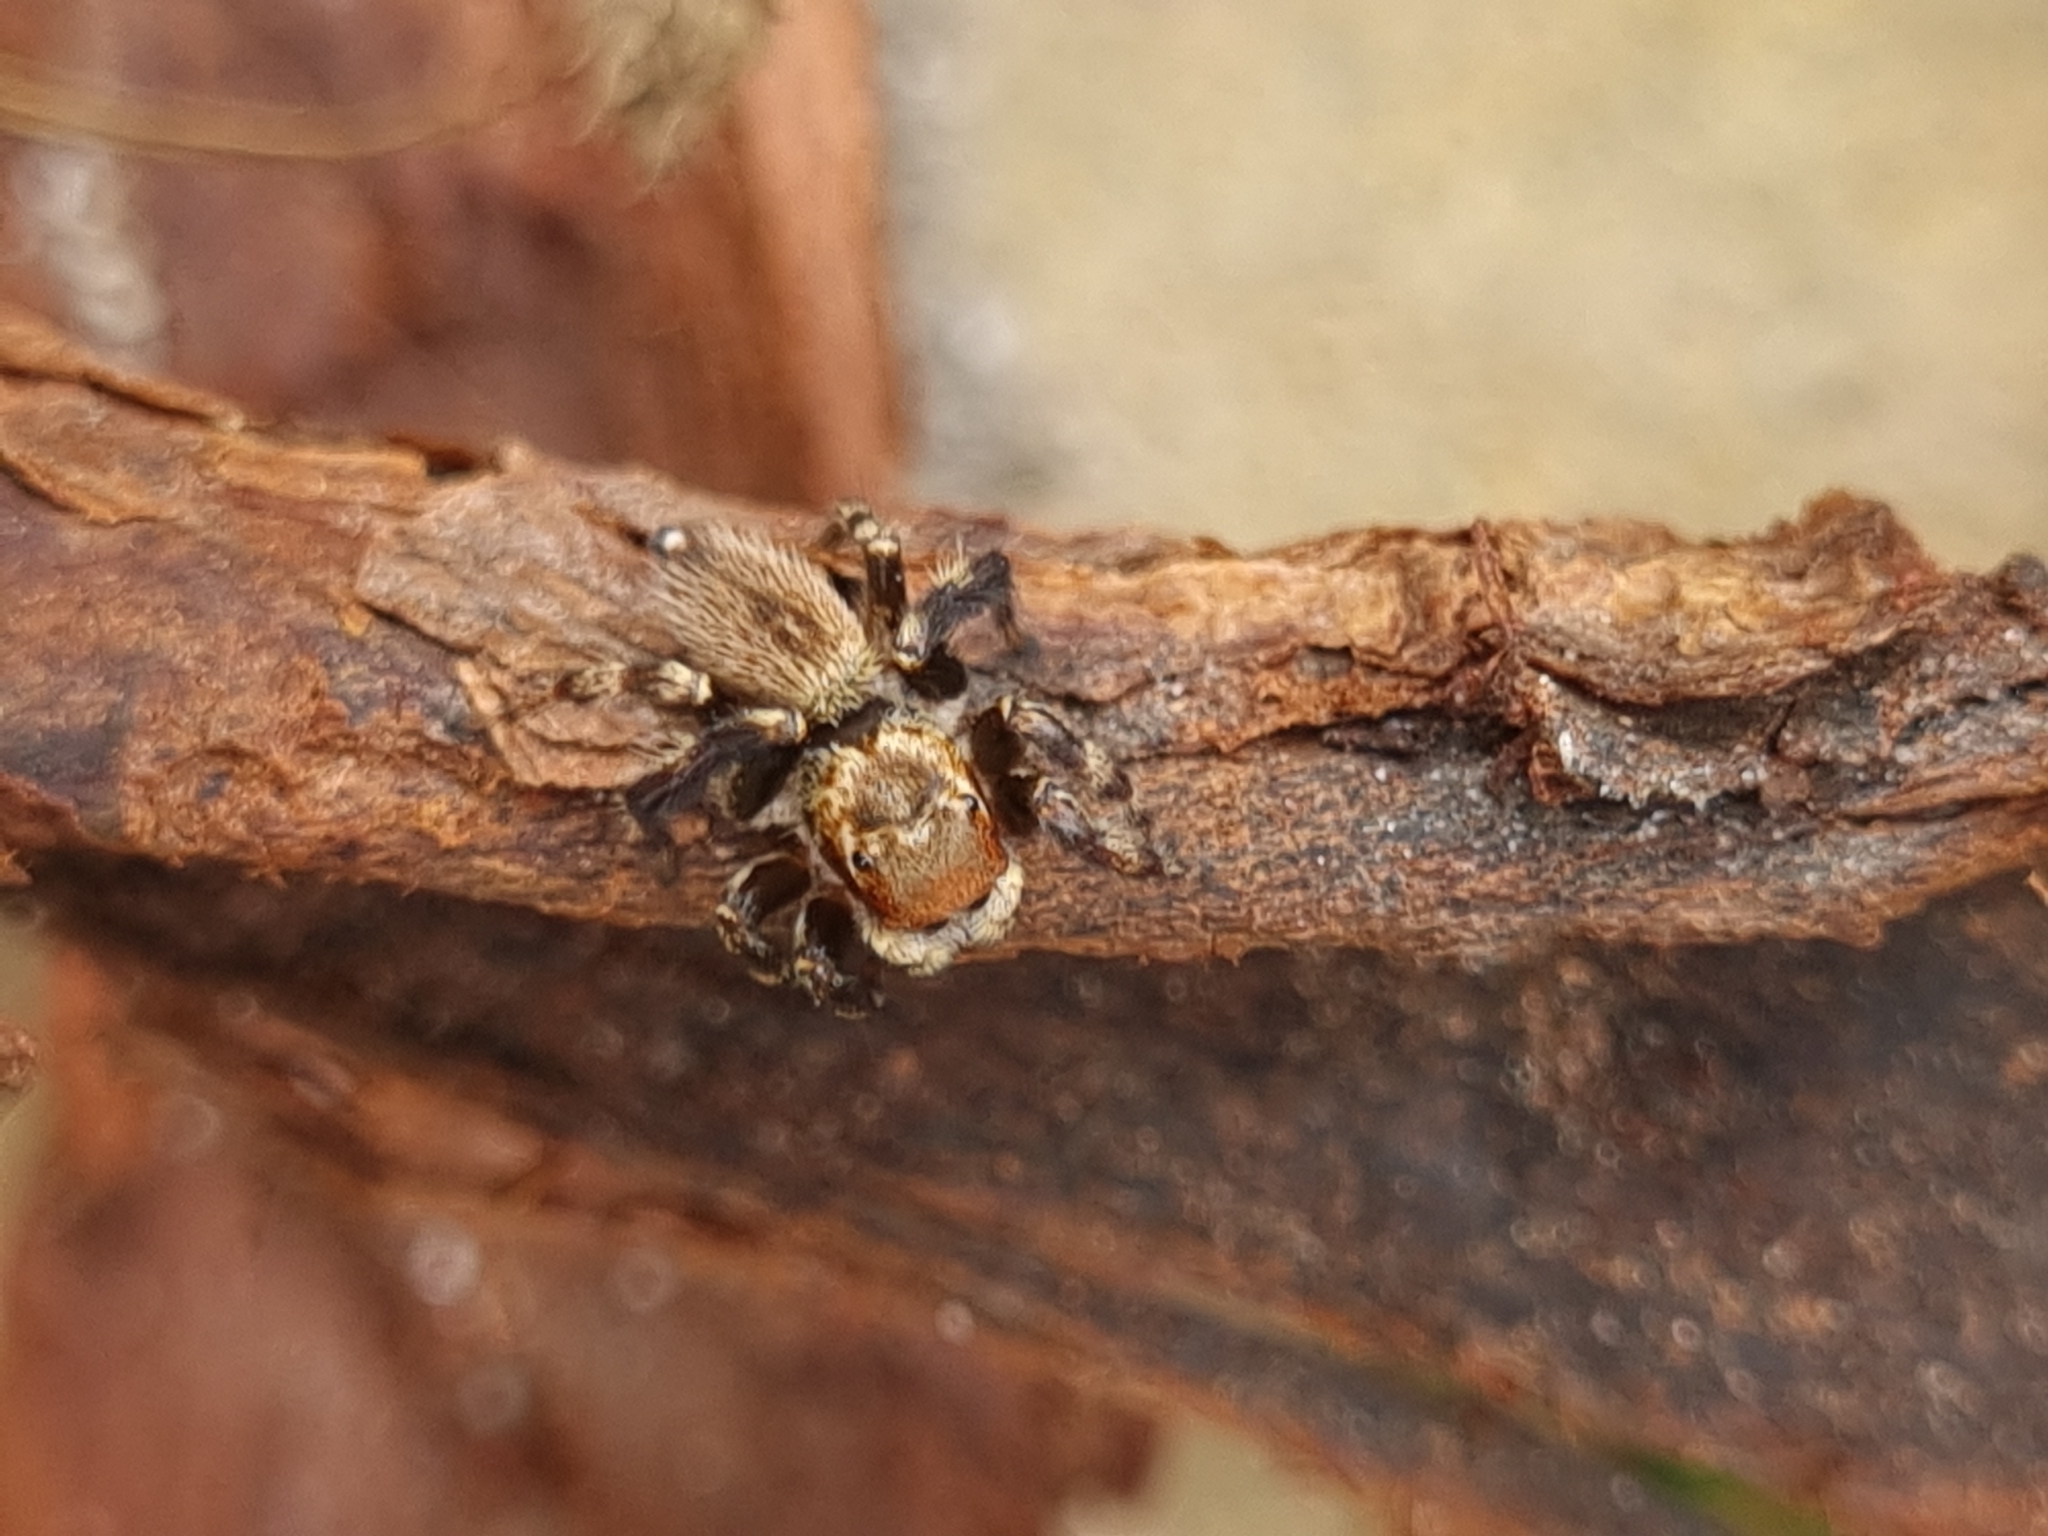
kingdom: Animalia
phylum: Arthropoda
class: Arachnida
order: Araneae
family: Salticidae
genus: Maratus
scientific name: Maratus griseus
